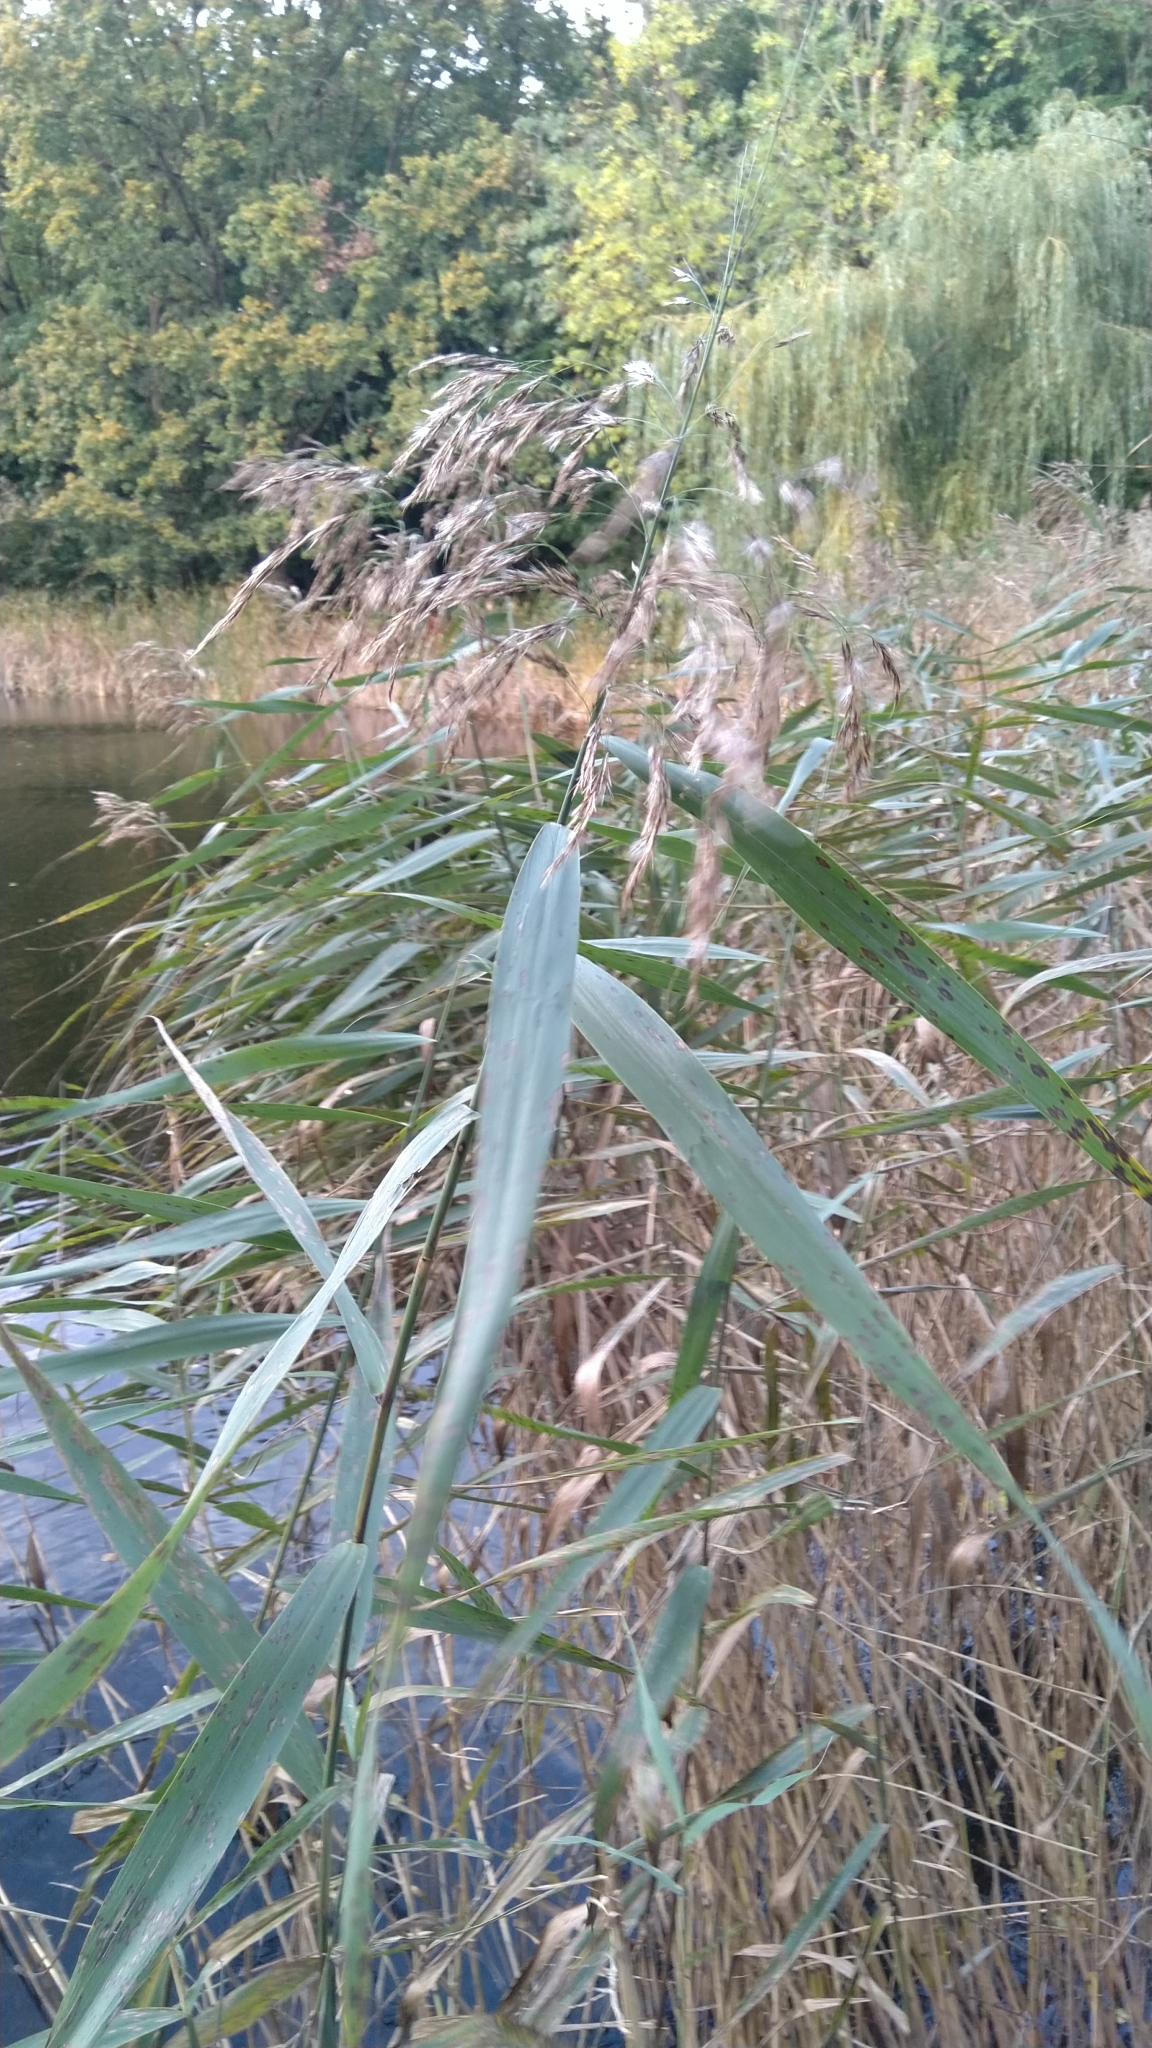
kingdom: Plantae
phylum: Tracheophyta
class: Liliopsida
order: Poales
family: Poaceae
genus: Phragmites
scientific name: Phragmites australis
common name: Common reed
